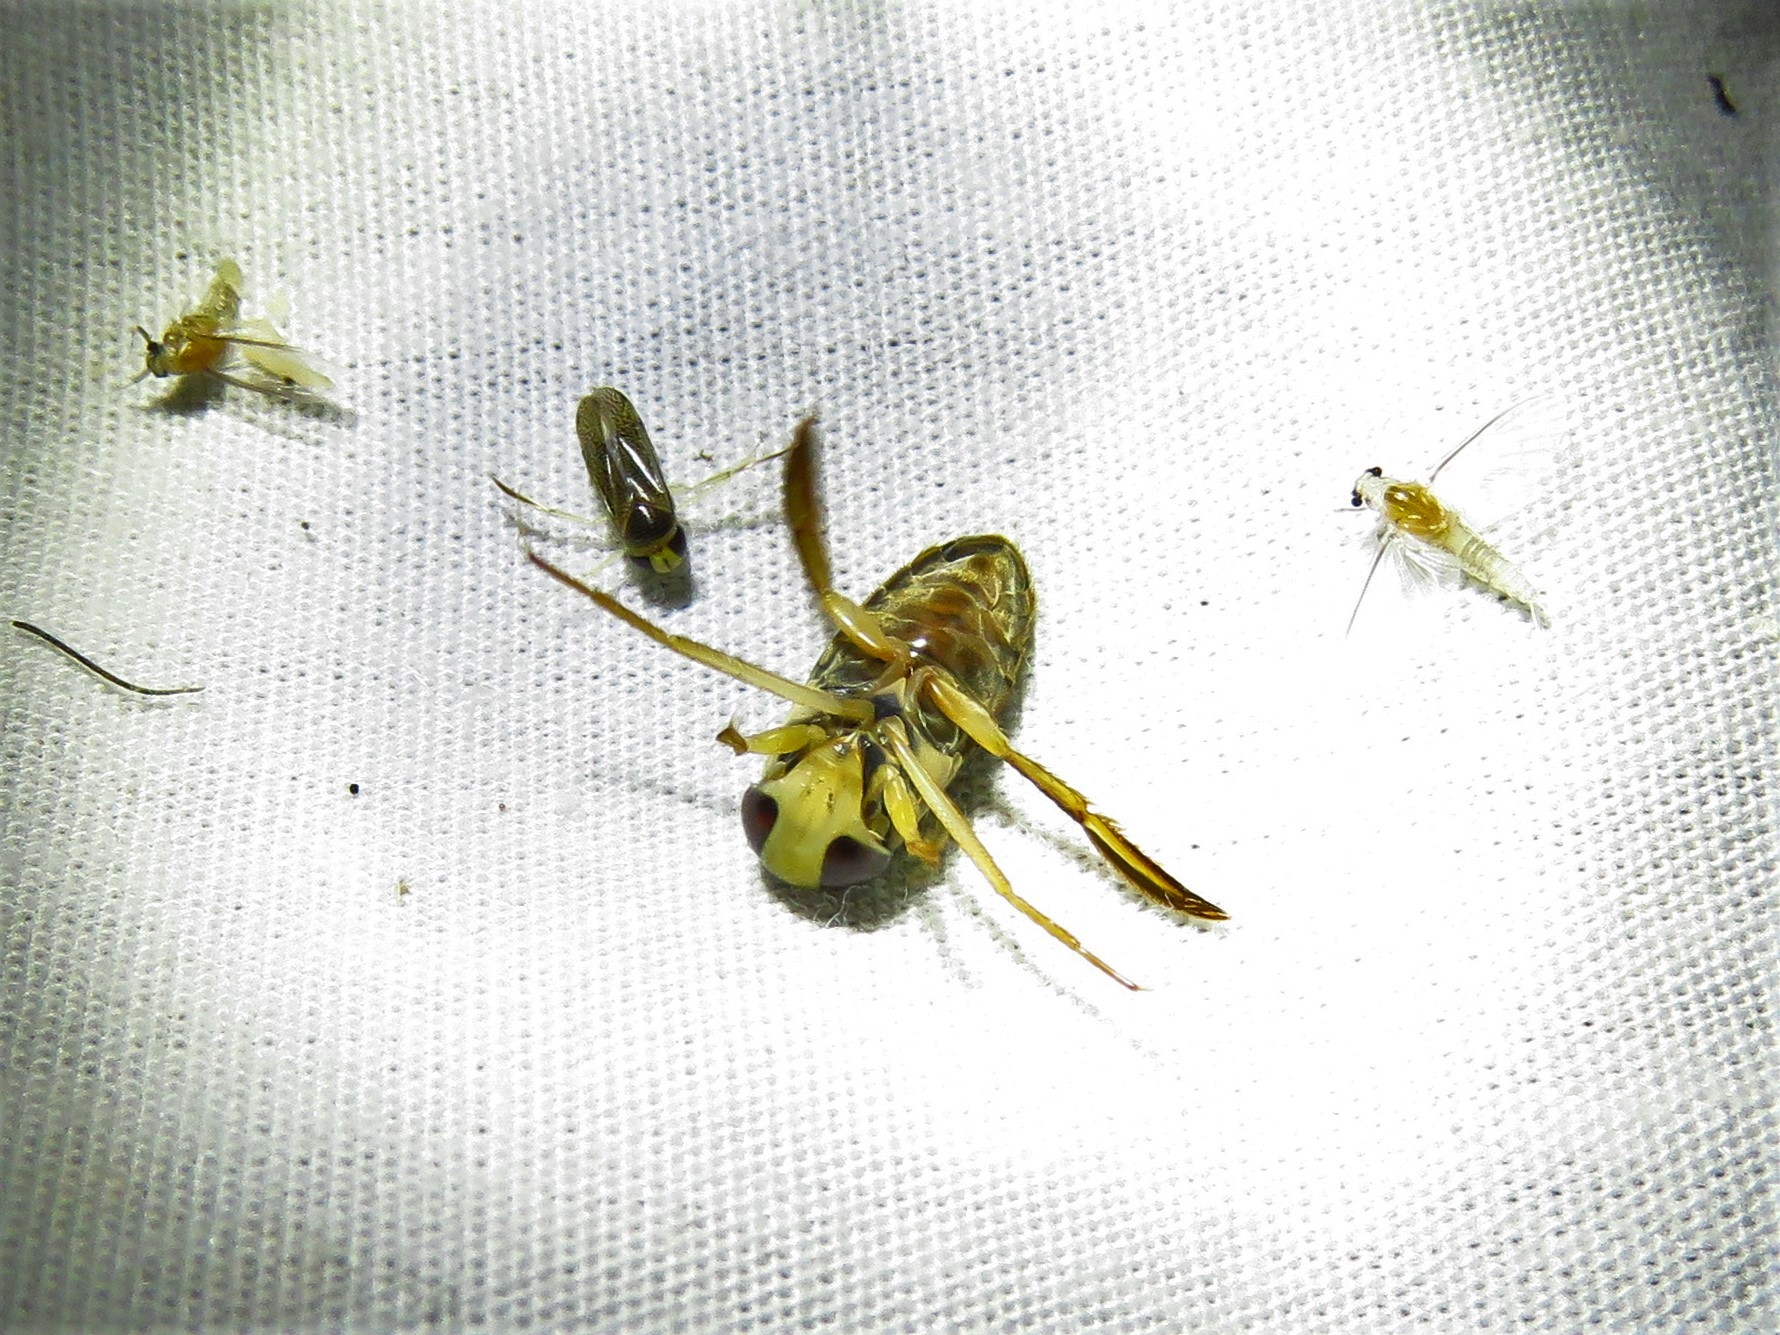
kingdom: Animalia
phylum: Arthropoda
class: Insecta
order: Hemiptera
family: Corixidae
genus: Hesperocorixa
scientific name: Hesperocorixa
